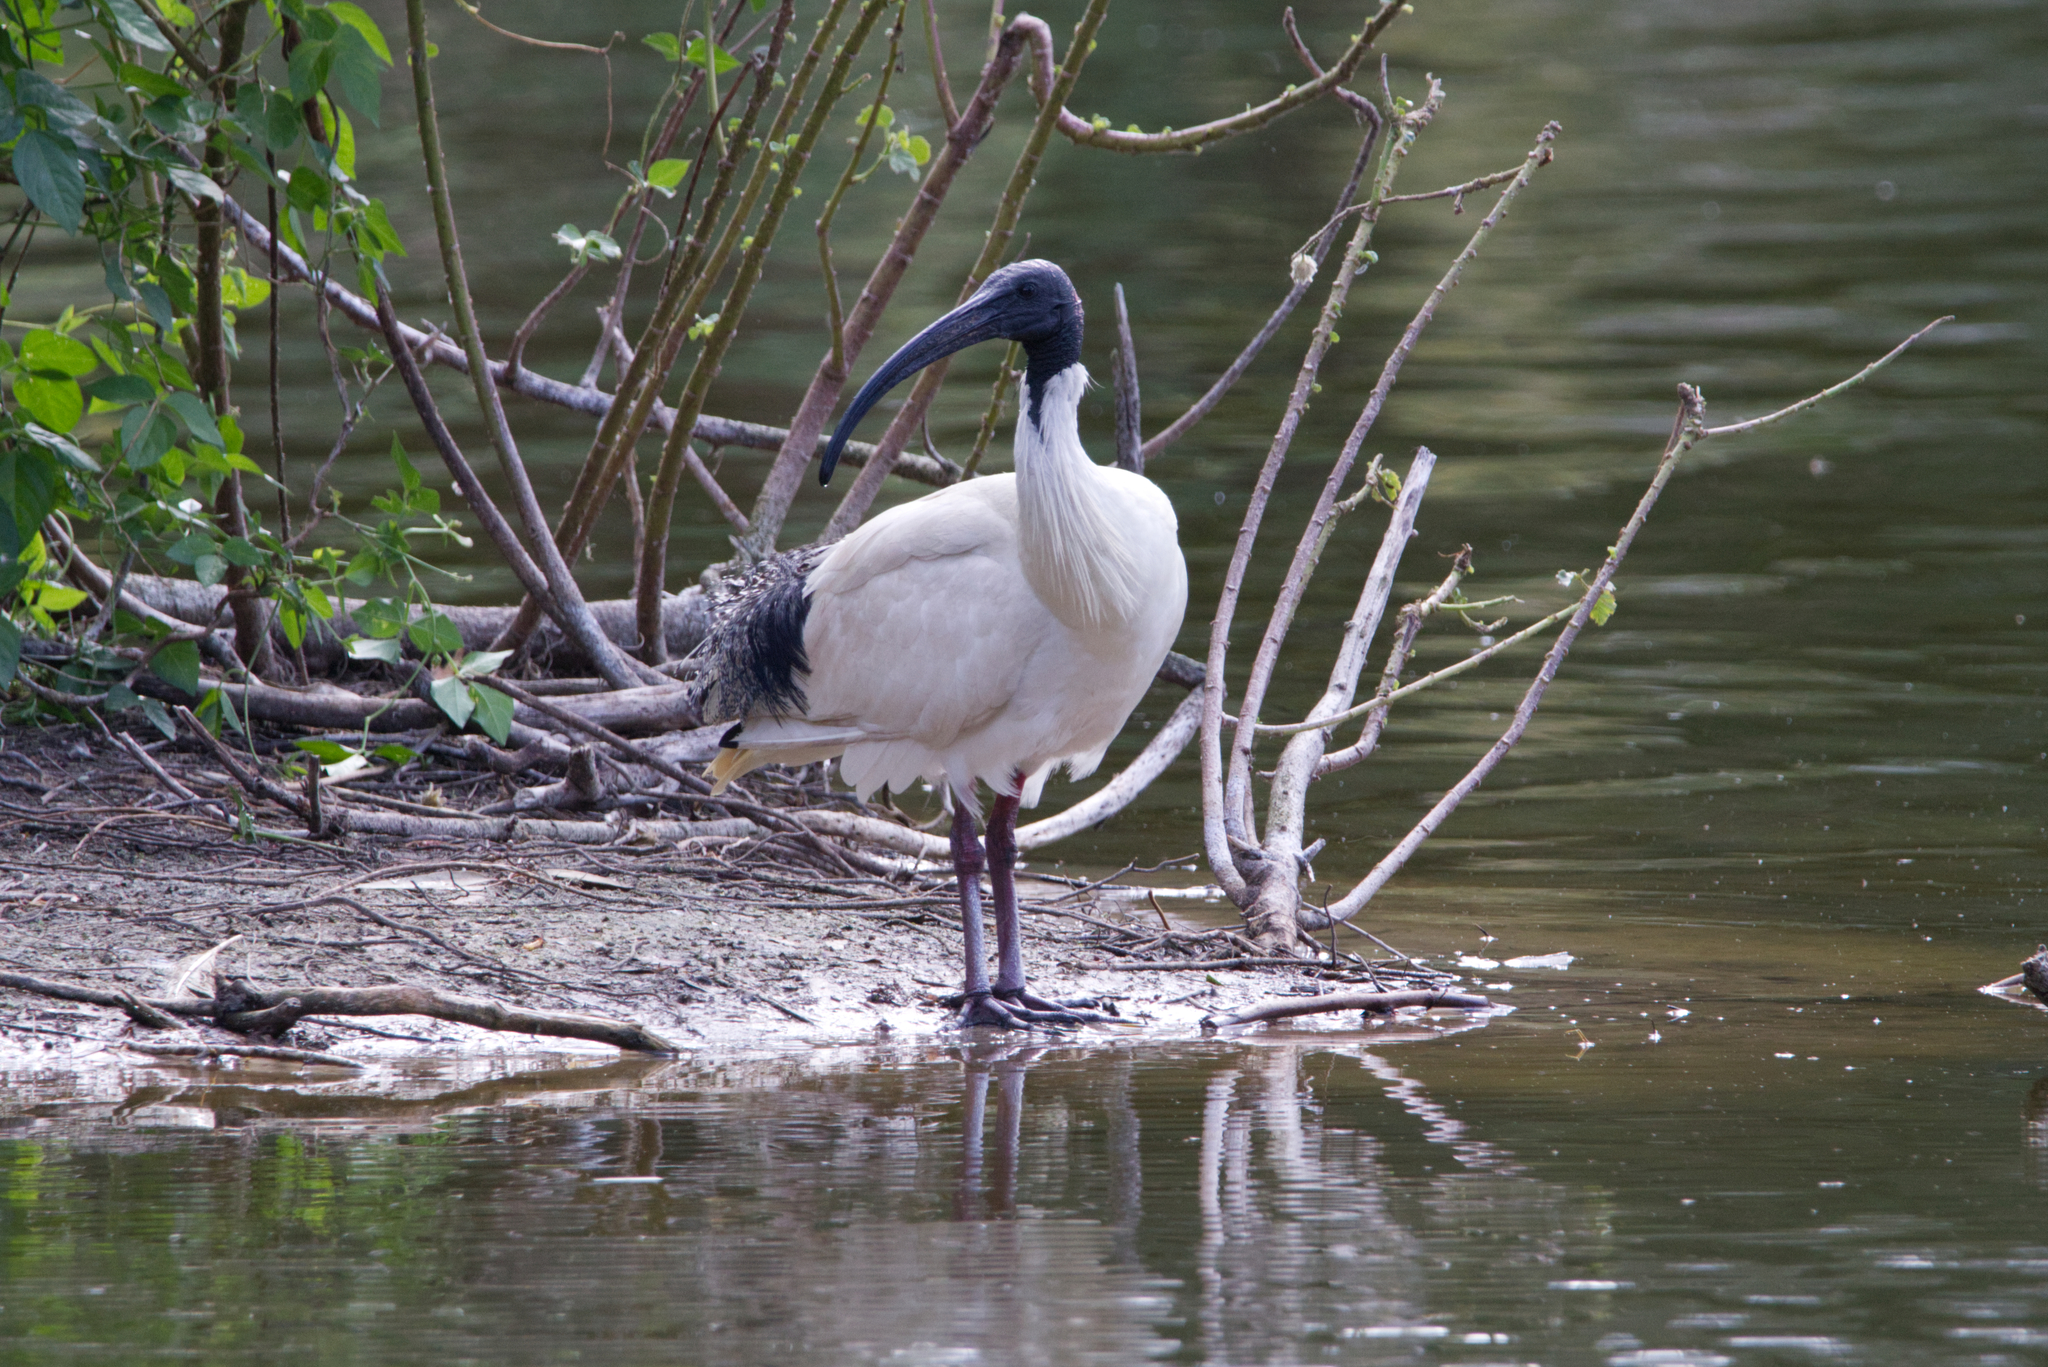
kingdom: Animalia
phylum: Chordata
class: Aves
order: Pelecaniformes
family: Threskiornithidae
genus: Threskiornis
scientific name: Threskiornis molucca
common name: Australian white ibis
